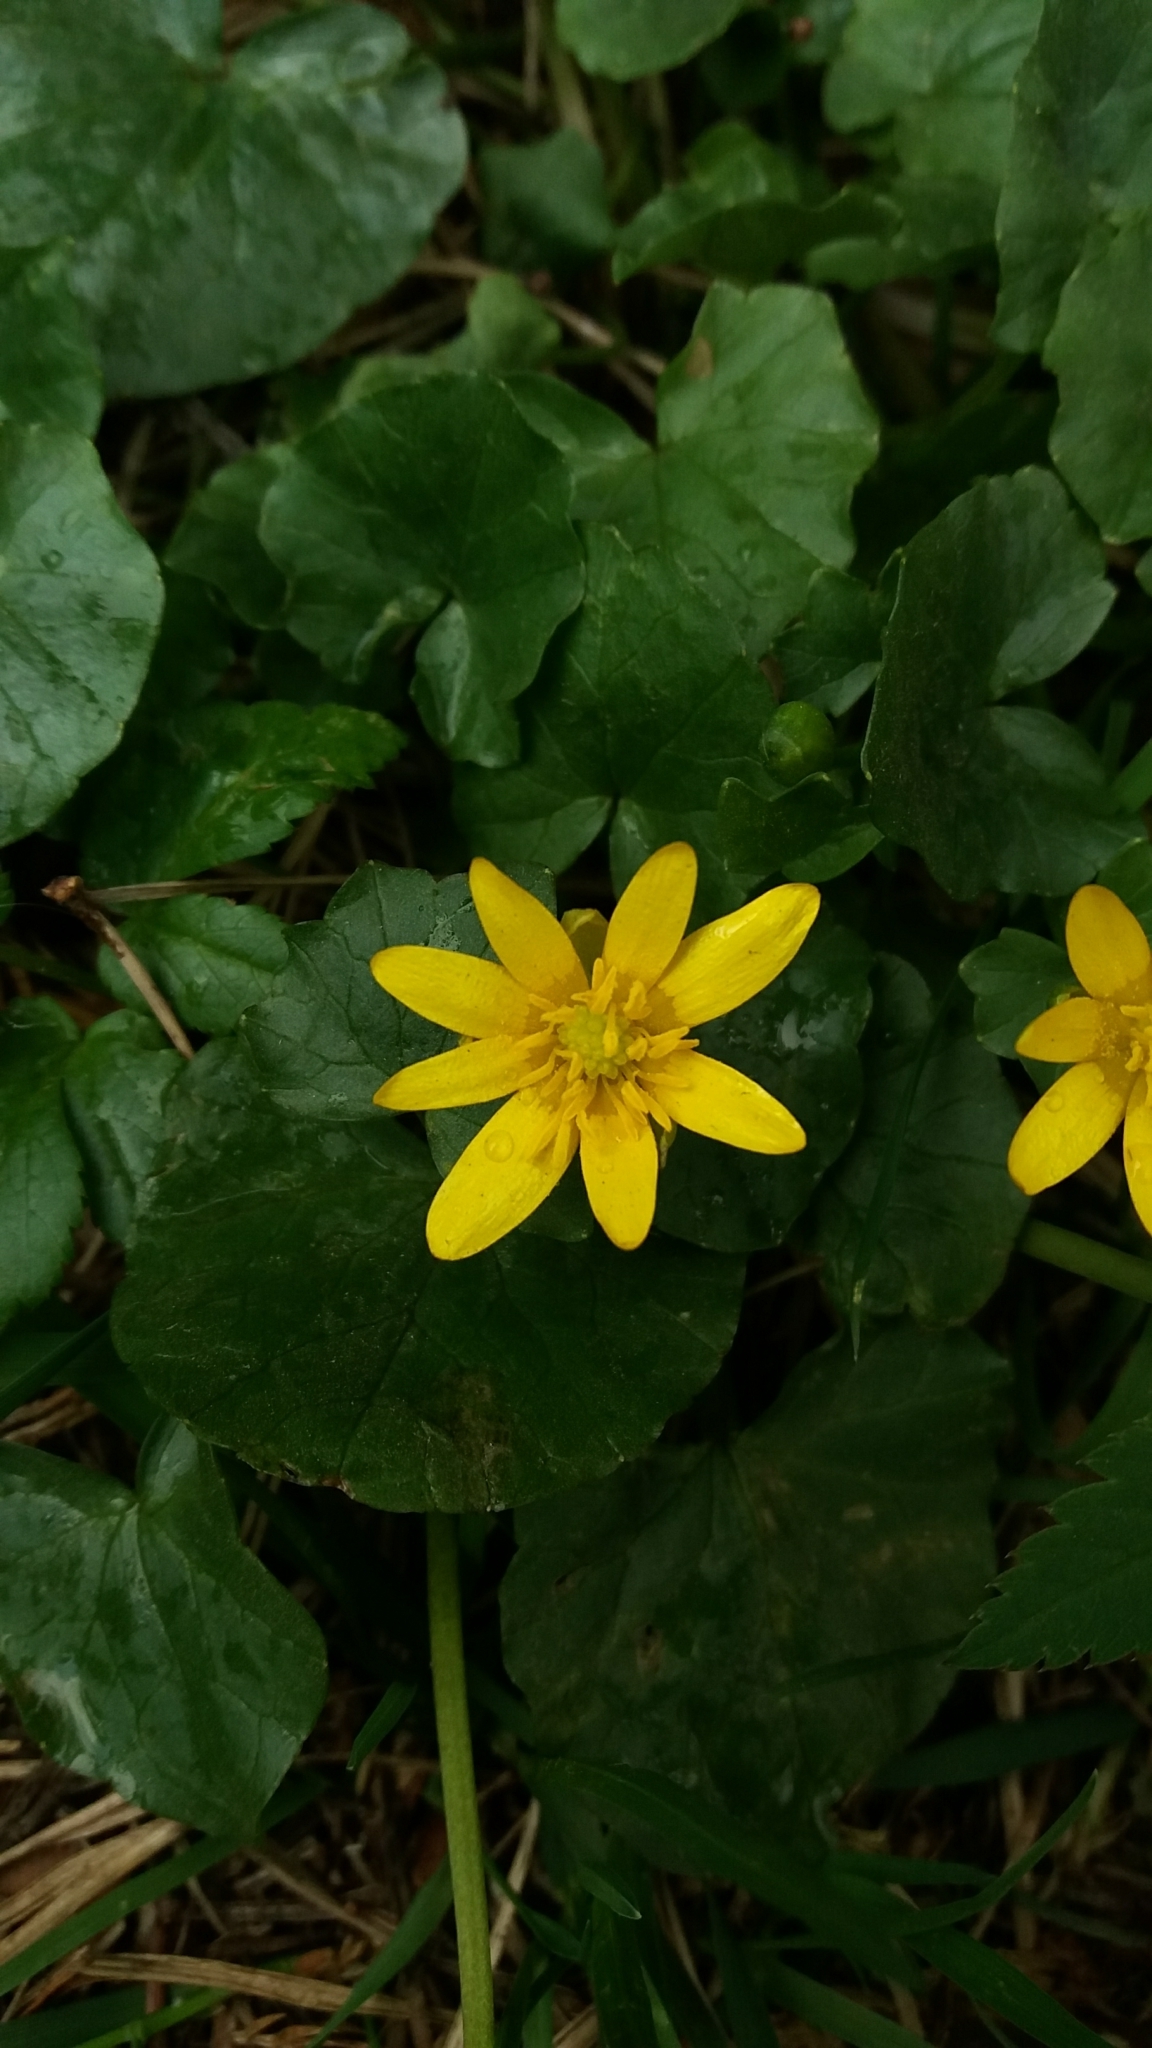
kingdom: Plantae
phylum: Tracheophyta
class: Magnoliopsida
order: Ranunculales
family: Ranunculaceae
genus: Ficaria
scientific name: Ficaria verna
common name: Lesser celandine
